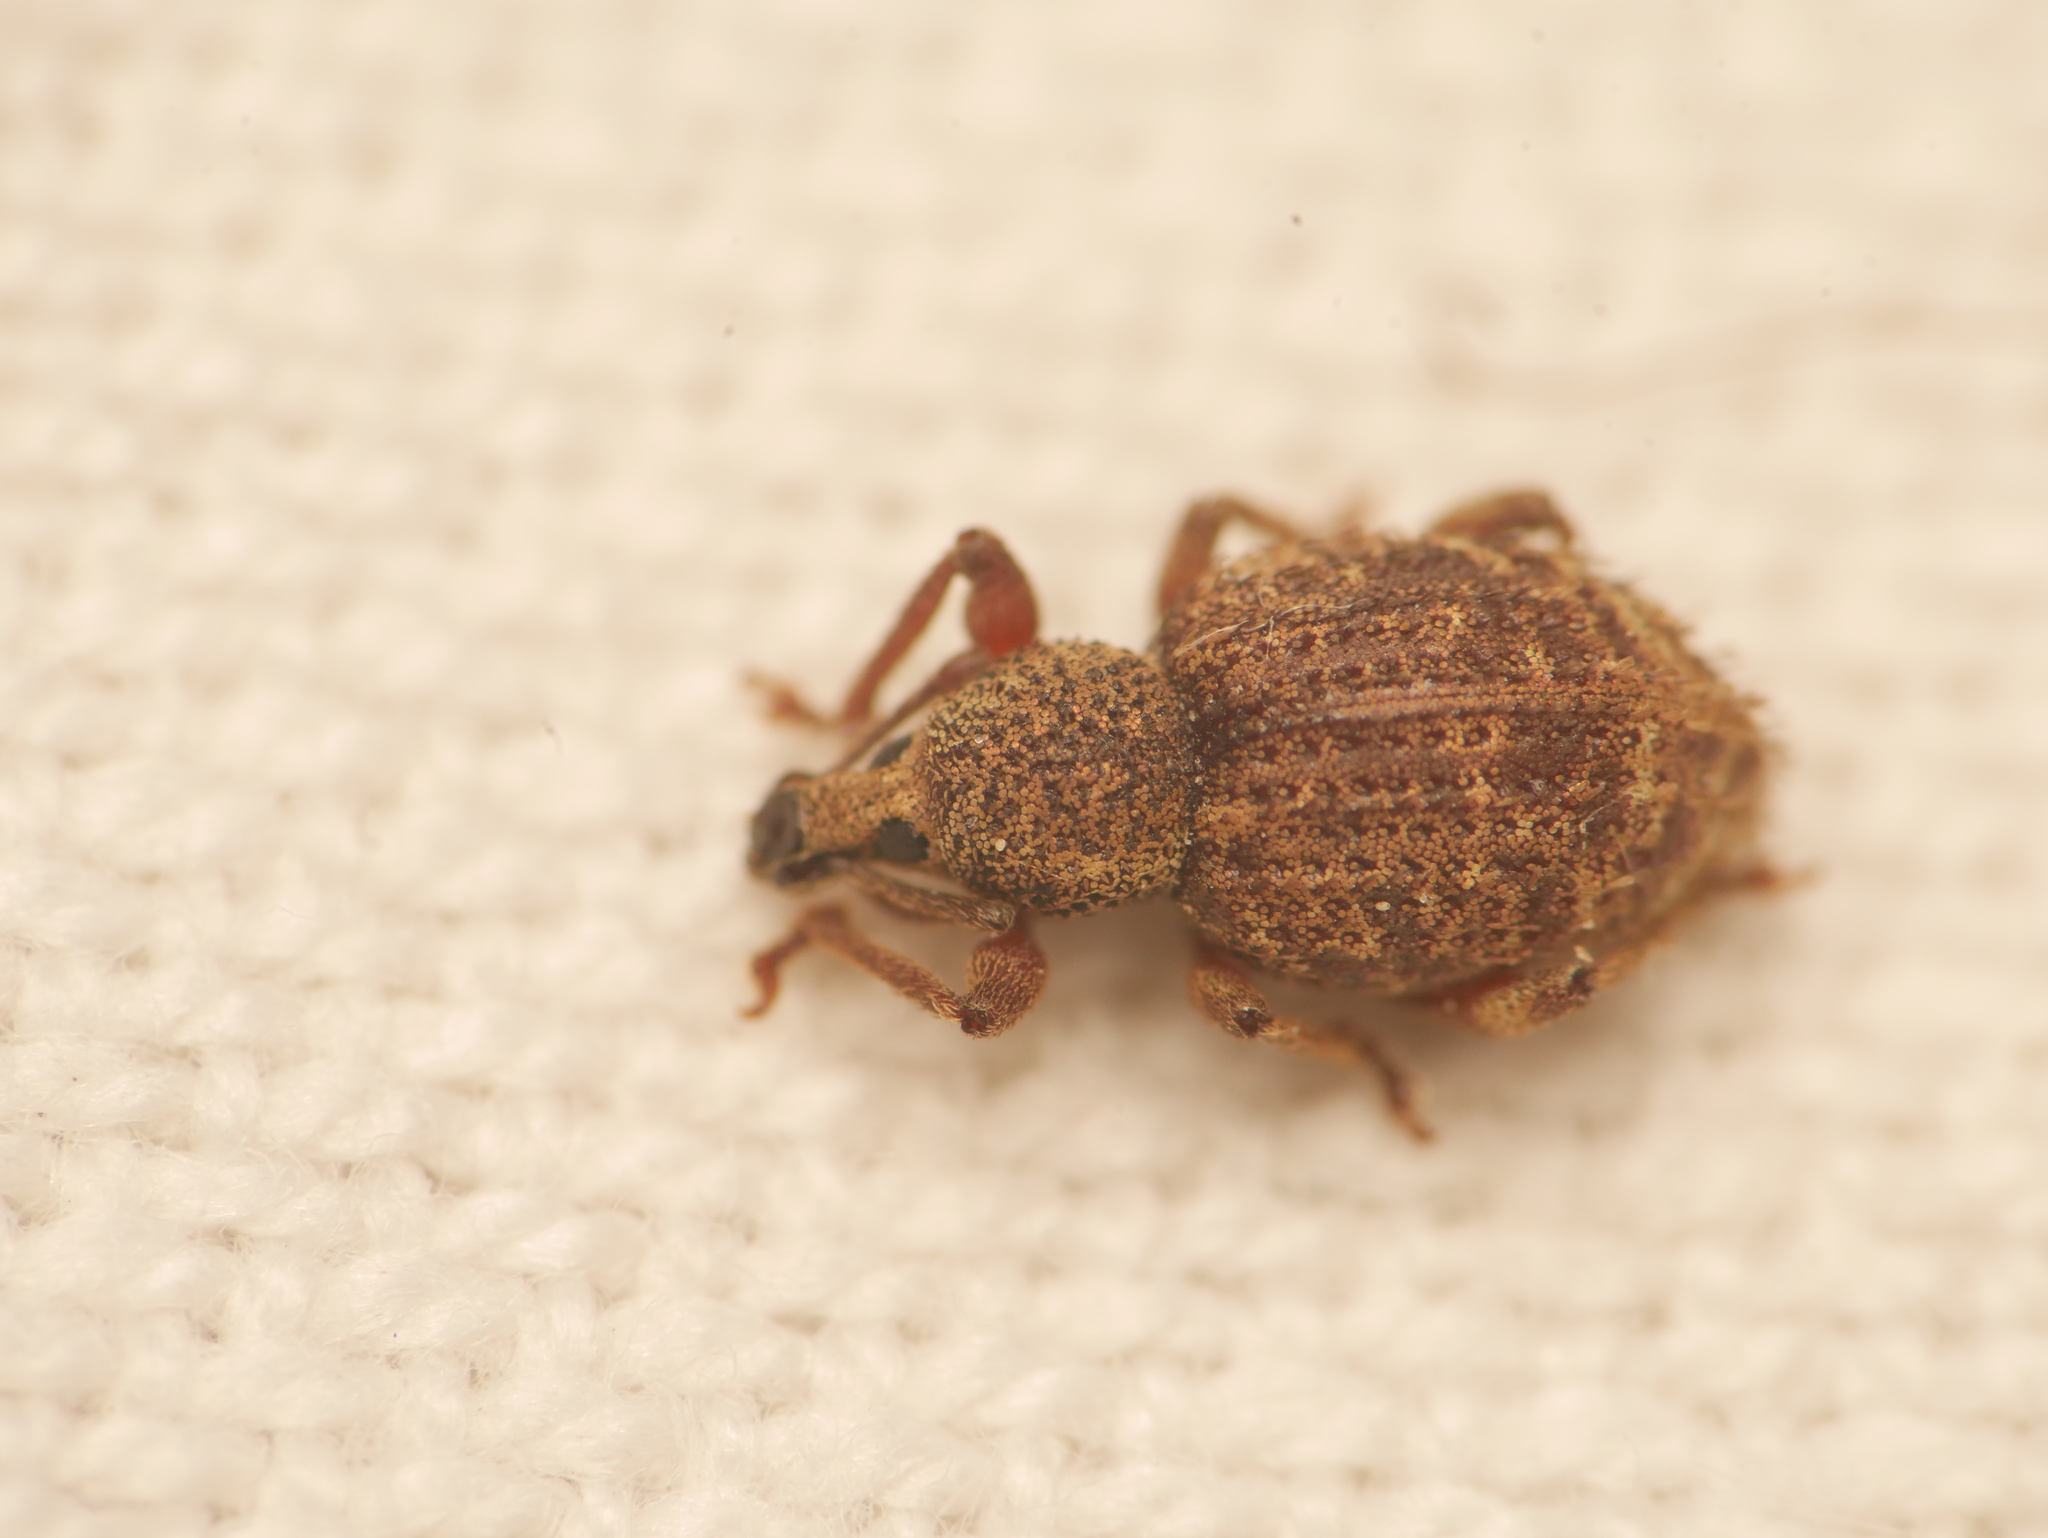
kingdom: Animalia
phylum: Arthropoda
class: Insecta
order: Coleoptera
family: Curculionidae
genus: Otiorhynchus
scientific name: Otiorhynchus carinatopunctatus
